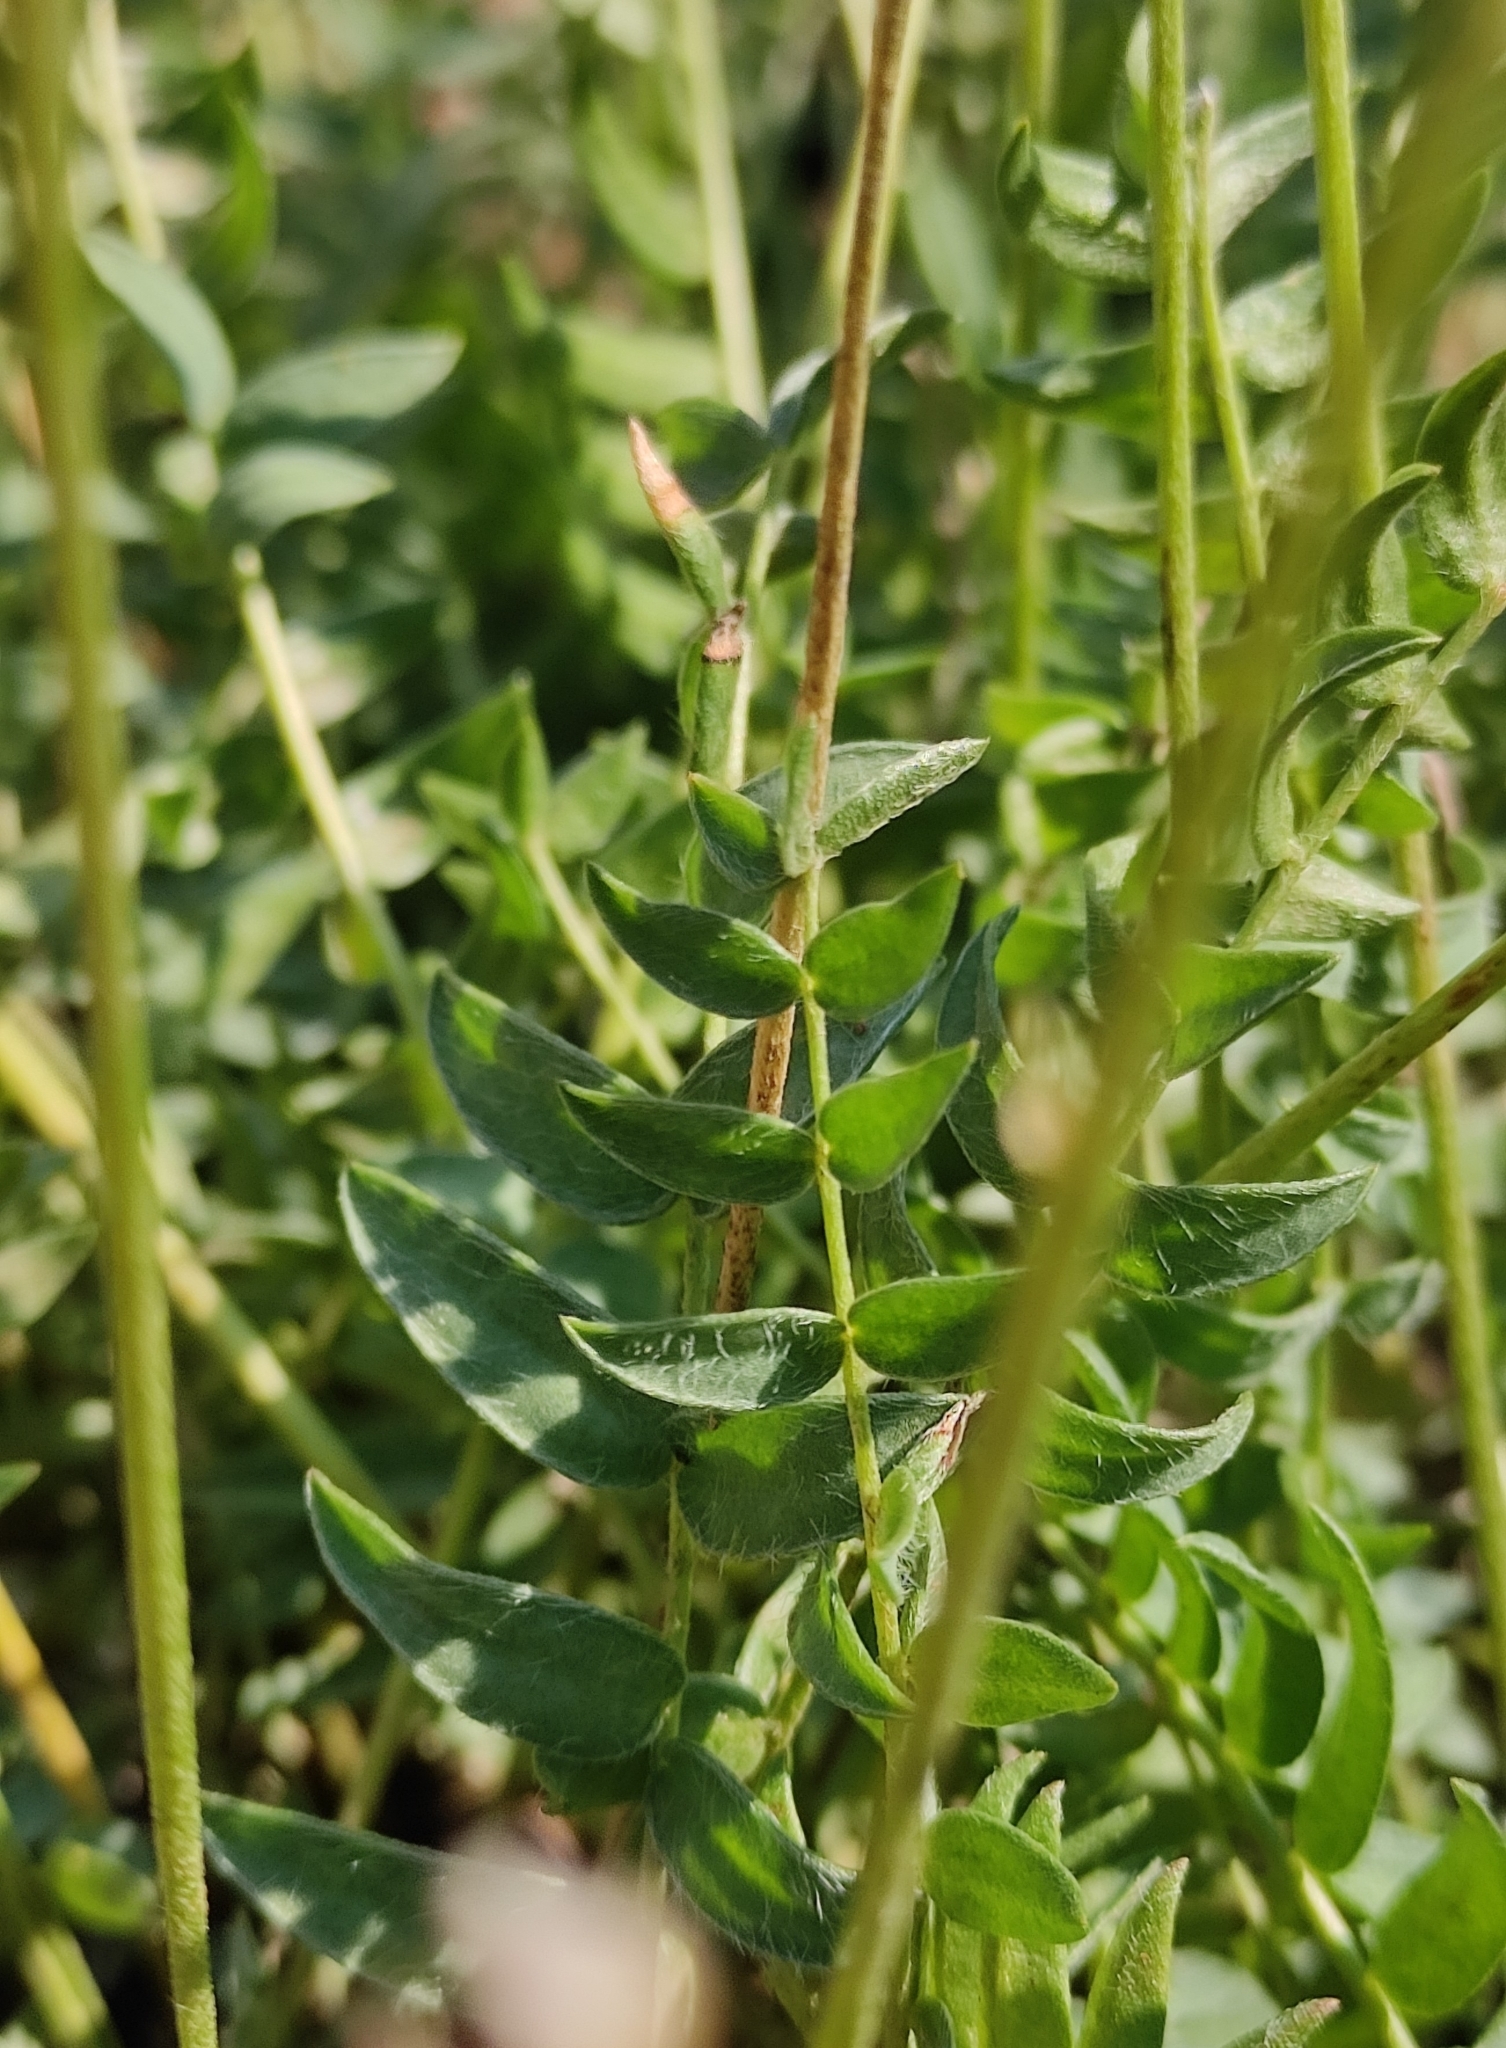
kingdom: Plantae
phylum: Tracheophyta
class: Magnoliopsida
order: Fabales
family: Fabaceae
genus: Oxytropis
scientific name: Oxytropis coerulea
